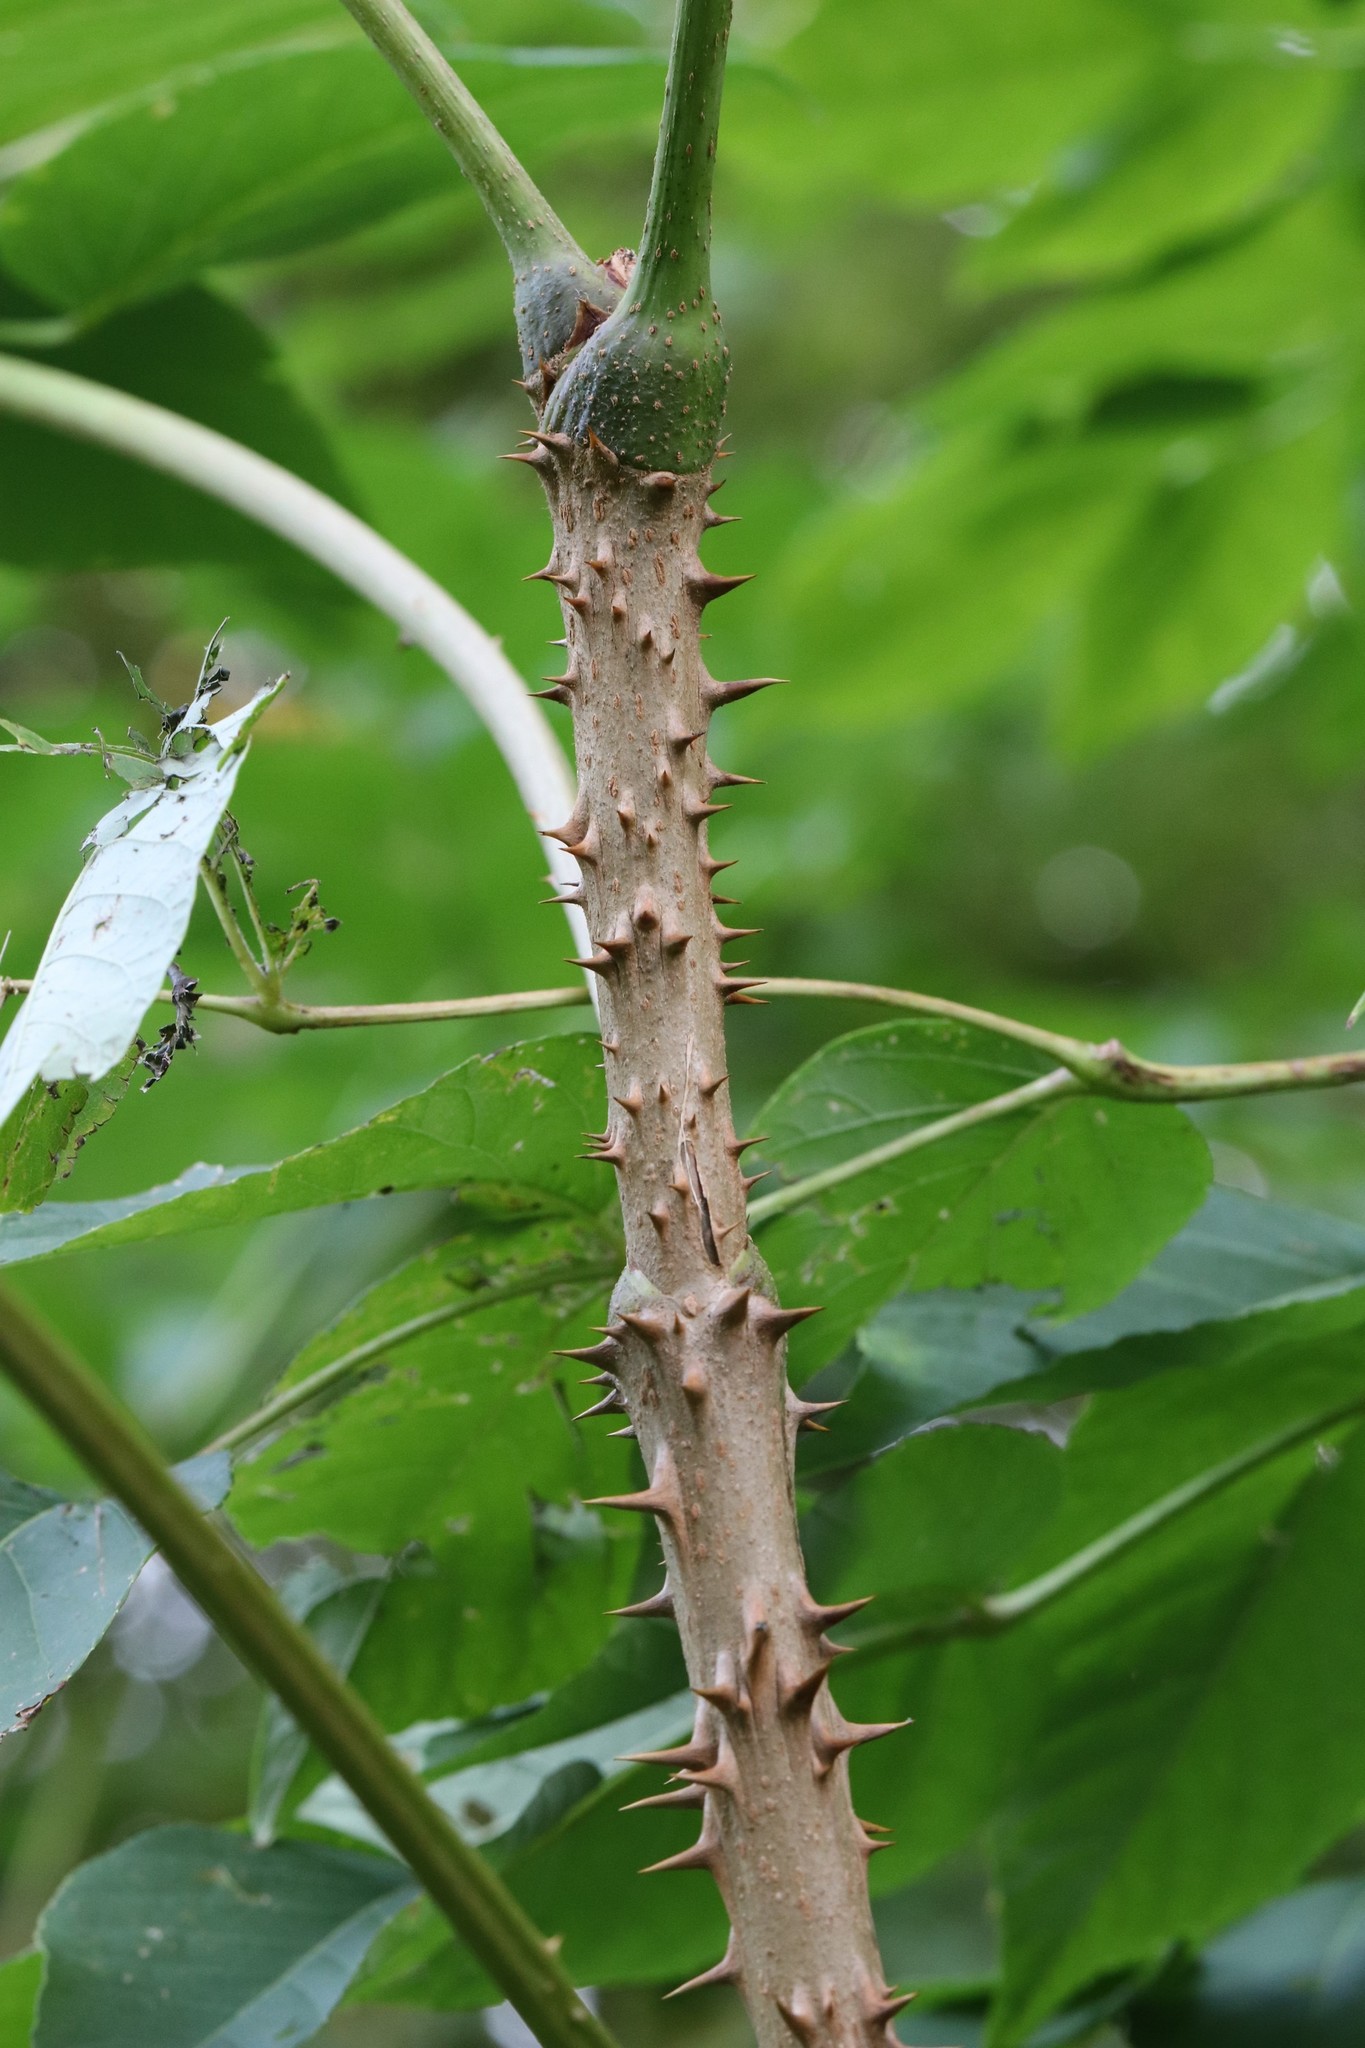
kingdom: Plantae
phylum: Tracheophyta
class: Magnoliopsida
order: Apiales
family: Araliaceae
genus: Aralia
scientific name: Aralia elata
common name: Japanese angelica-tree
